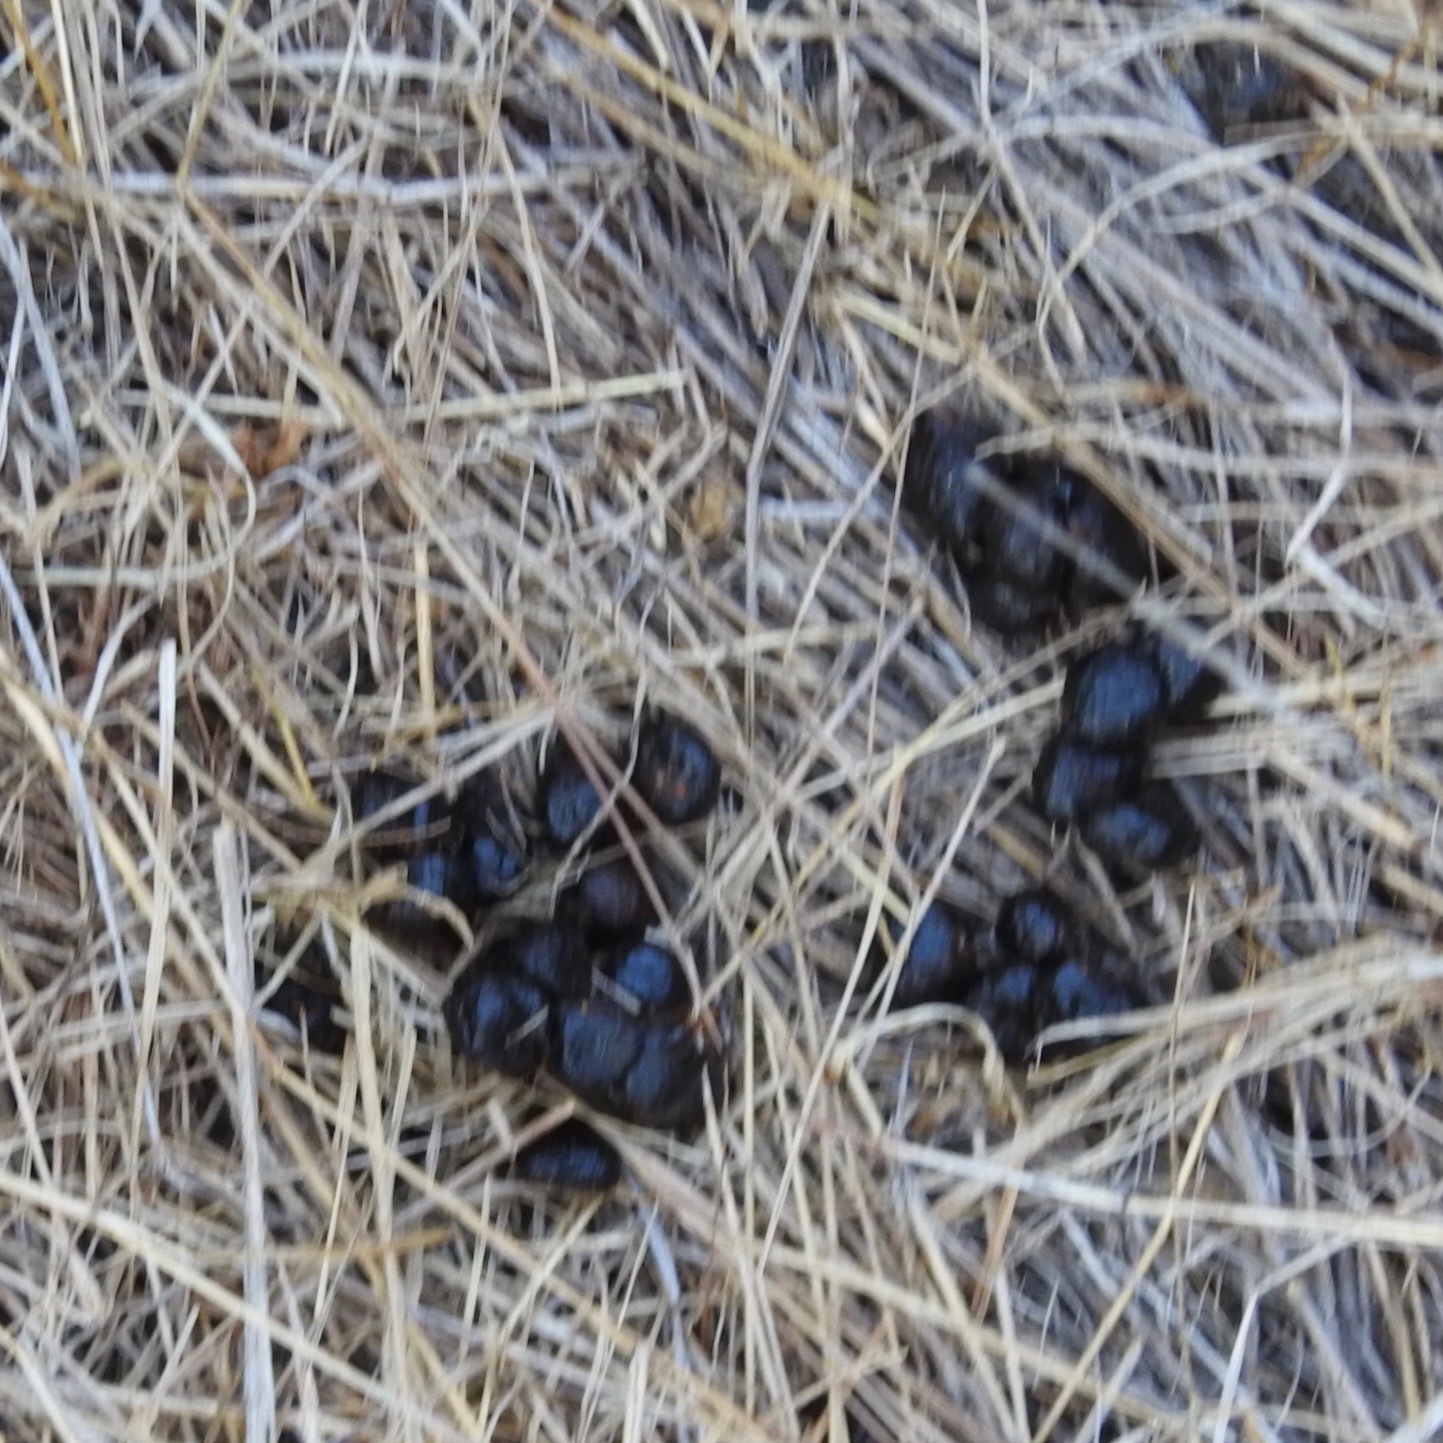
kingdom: Animalia
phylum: Chordata
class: Mammalia
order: Artiodactyla
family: Cervidae
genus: Odocoileus
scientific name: Odocoileus hemionus
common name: Mule deer
